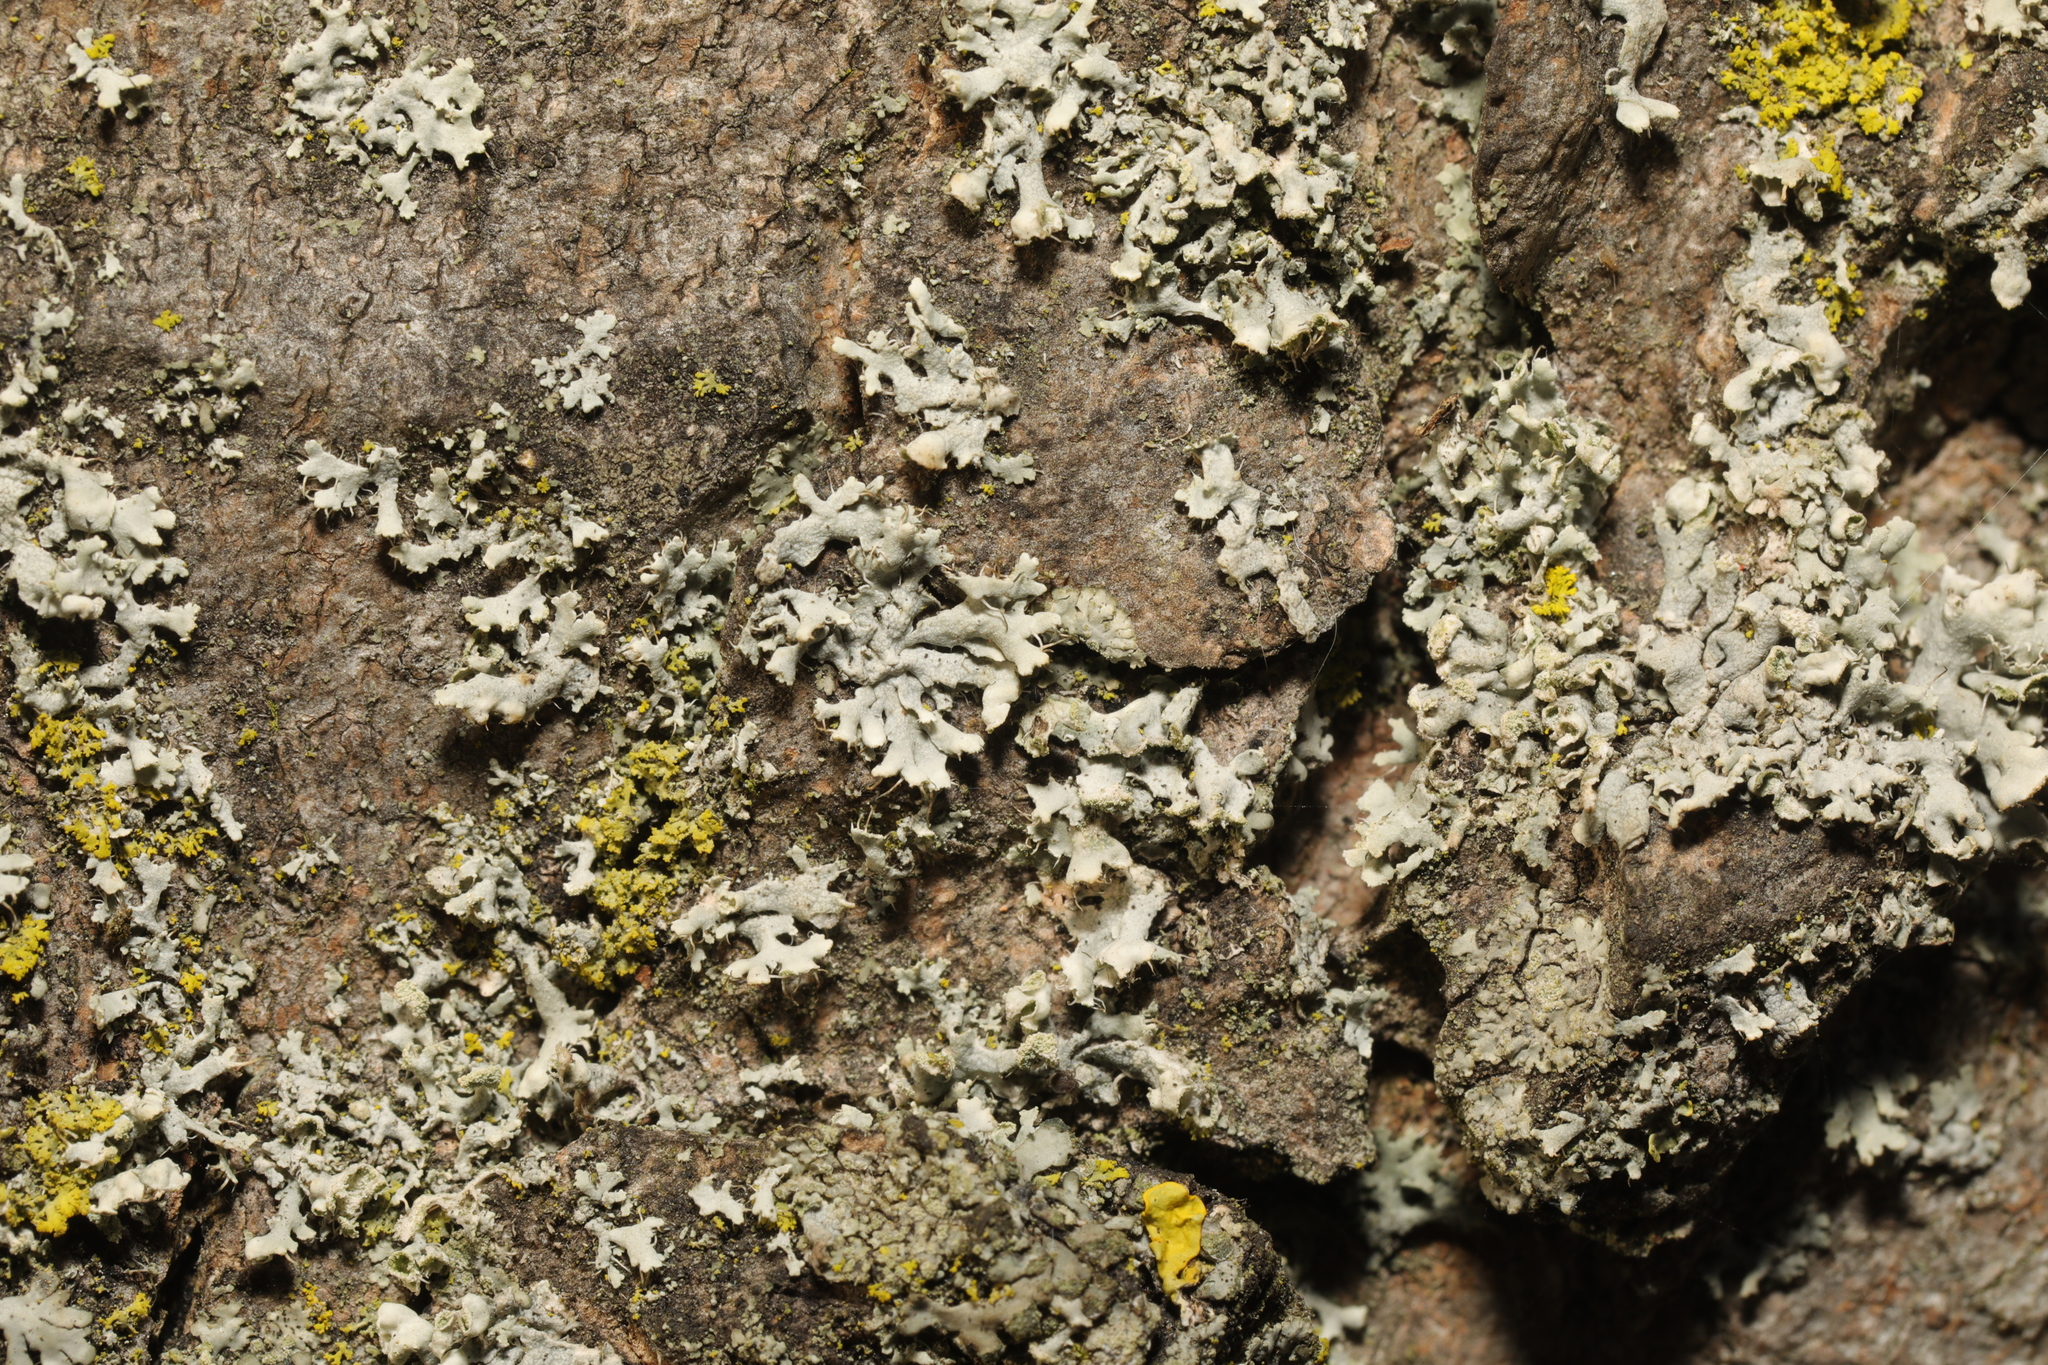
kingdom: Fungi
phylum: Ascomycota
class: Lecanoromycetes
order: Caliciales
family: Physciaceae
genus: Physcia
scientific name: Physcia adscendens
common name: Hooded rosette lichen
